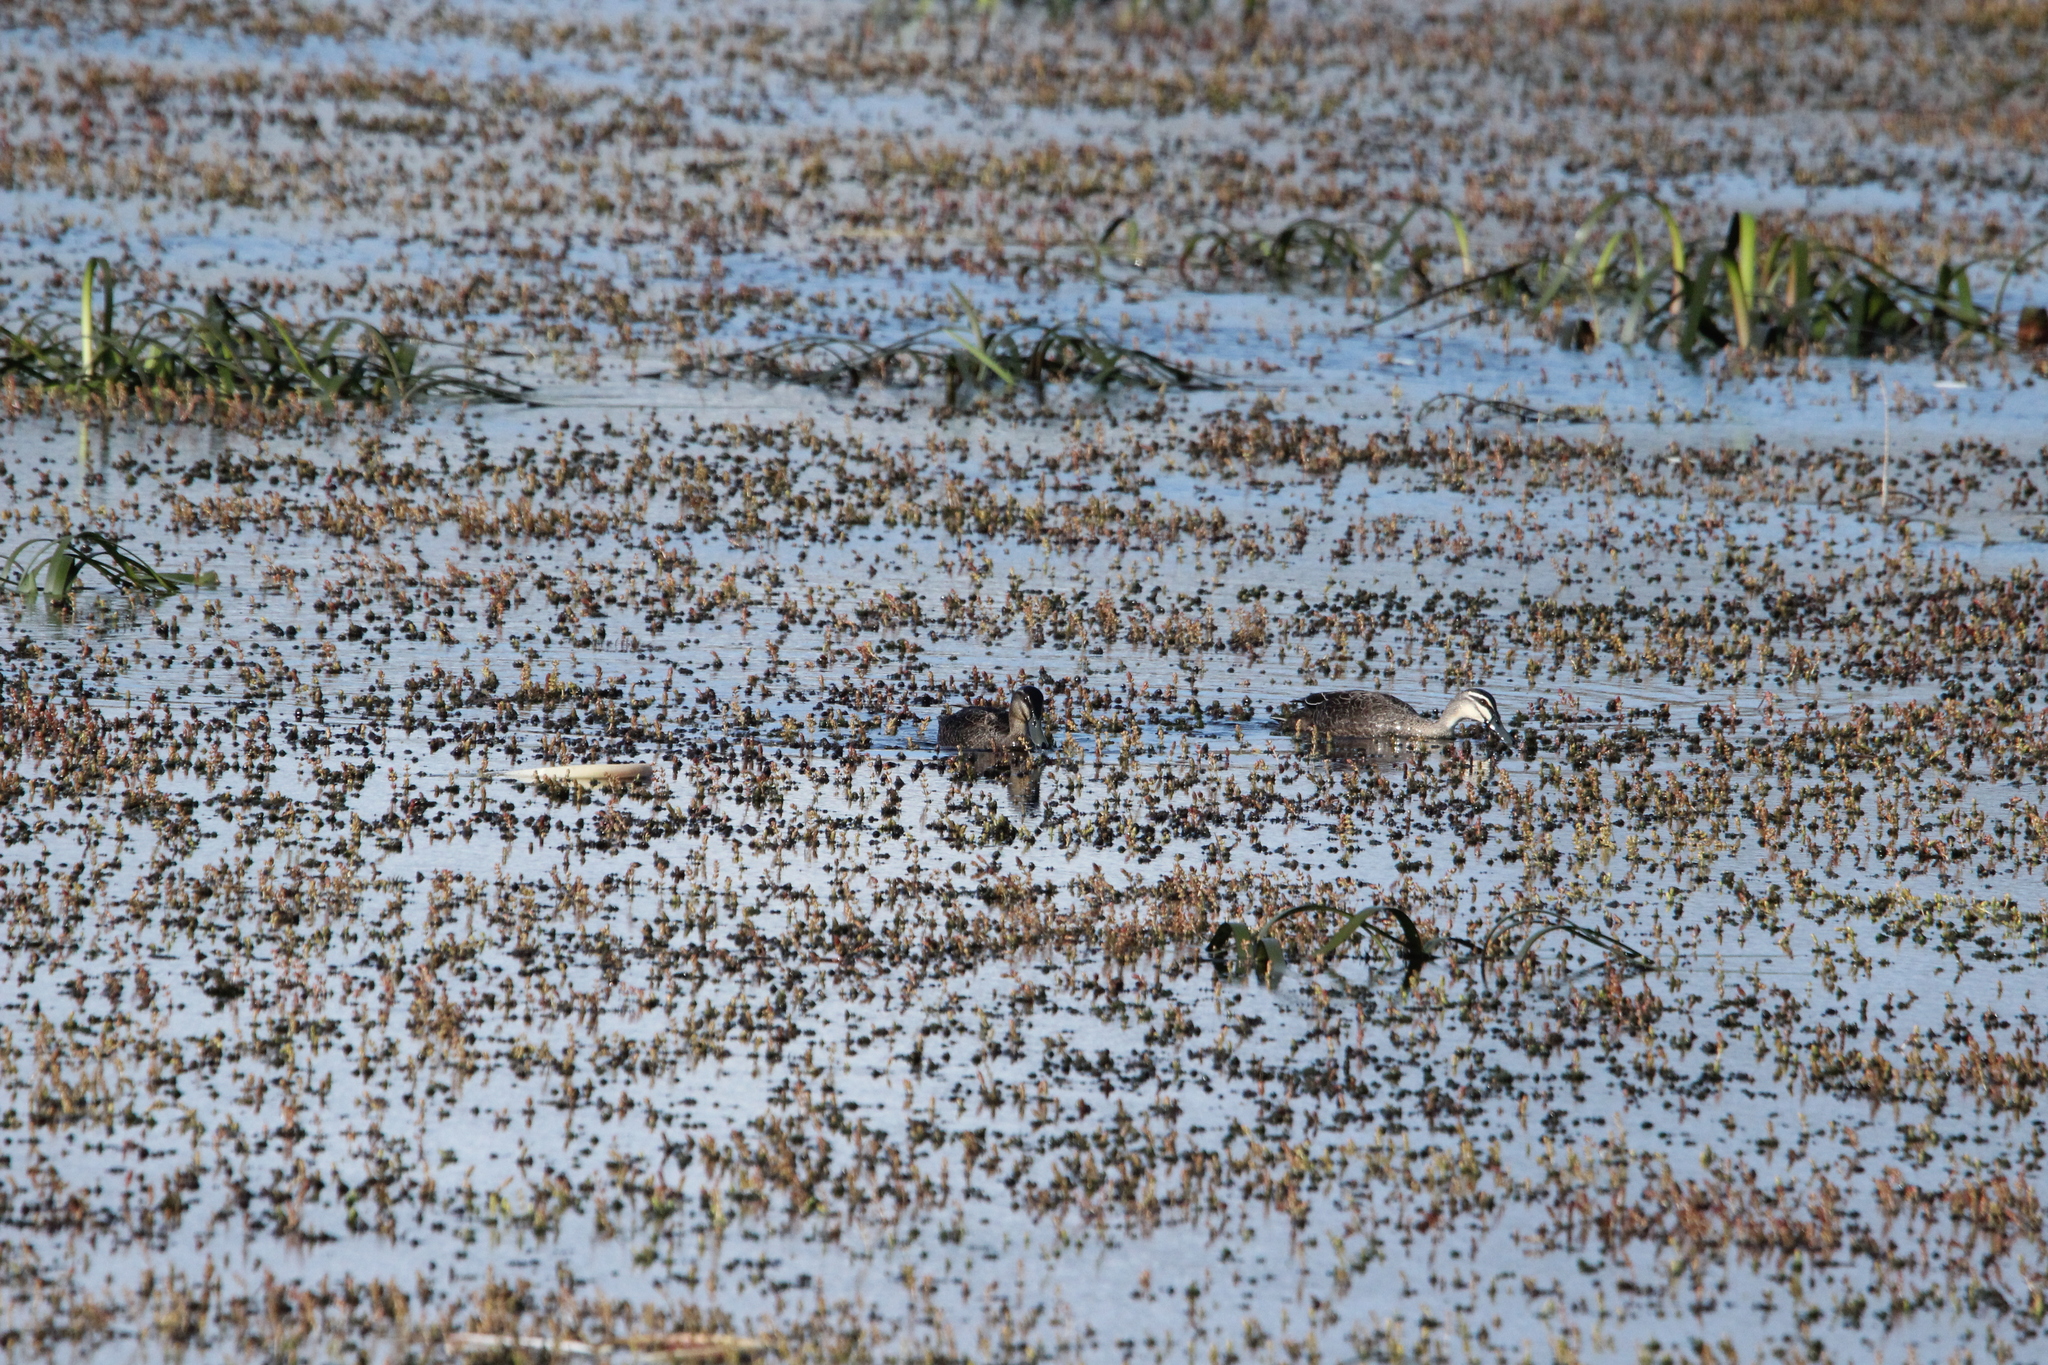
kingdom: Animalia
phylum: Chordata
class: Aves
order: Anseriformes
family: Anatidae
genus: Anas
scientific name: Anas
